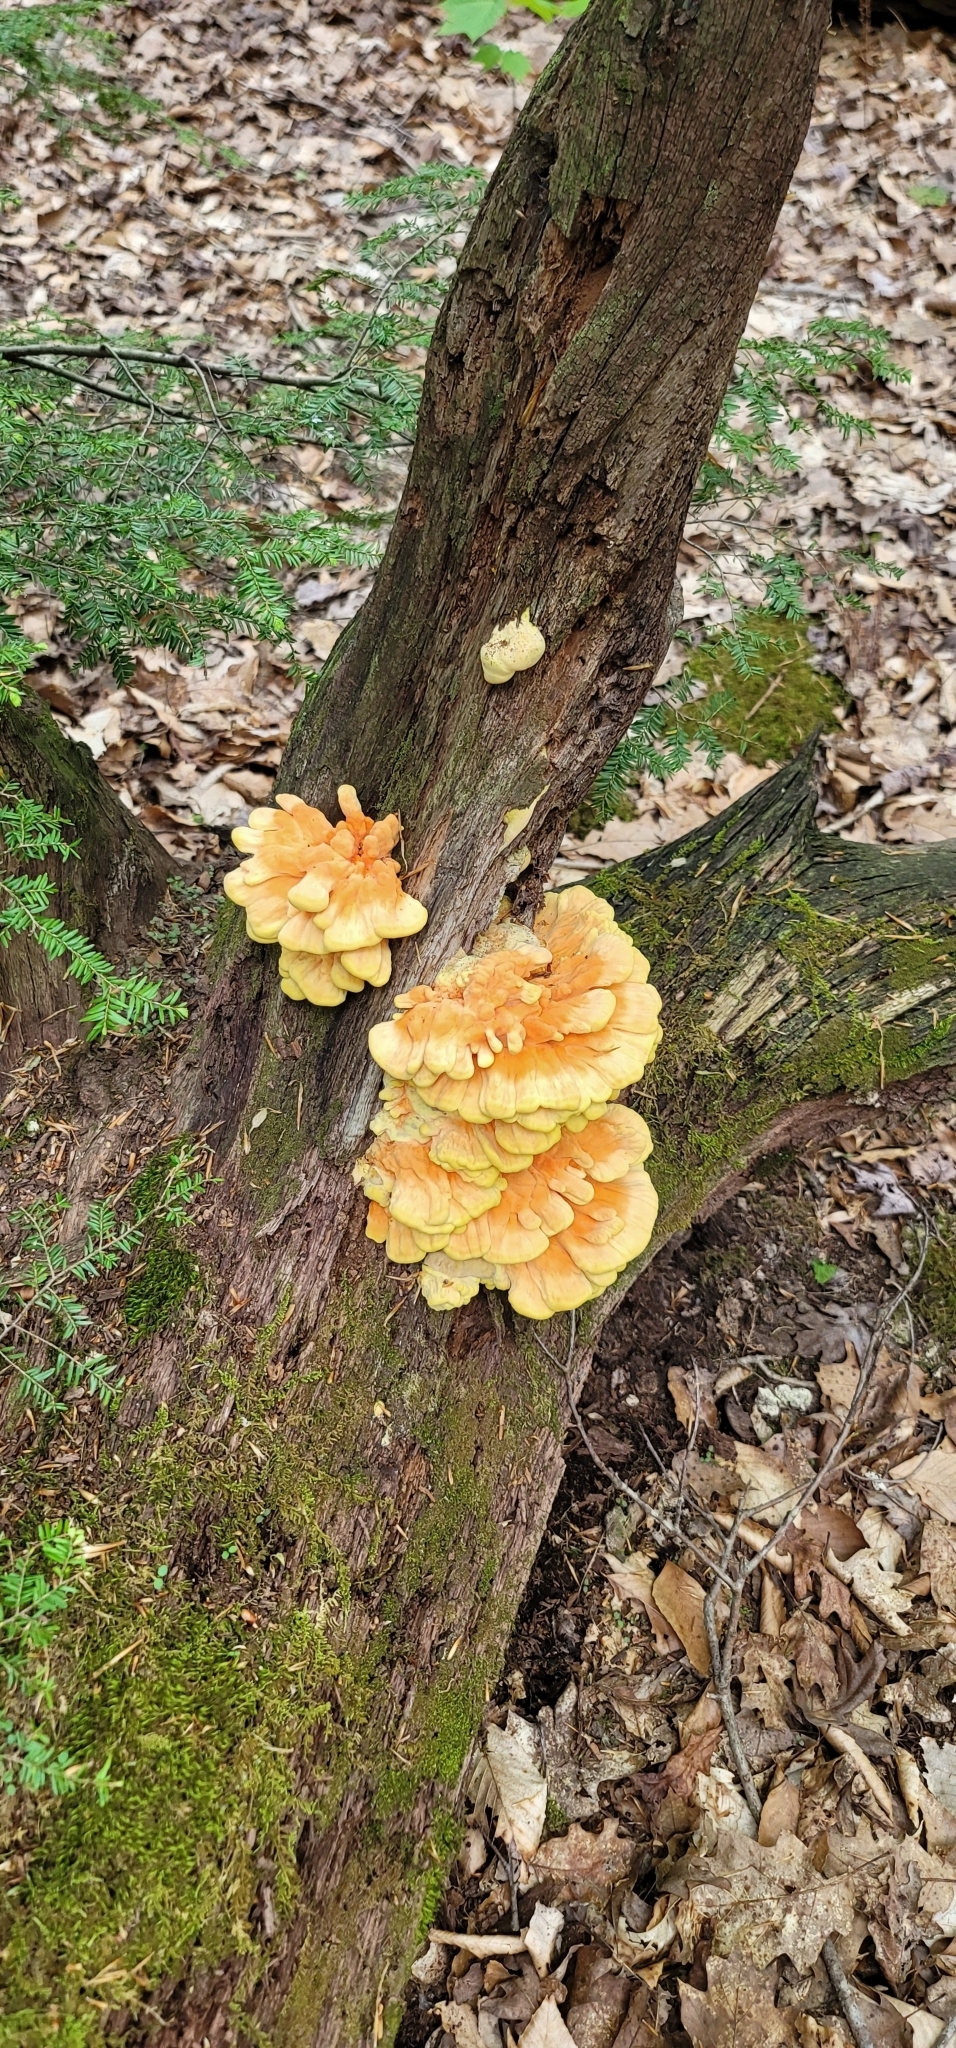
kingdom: Fungi
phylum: Basidiomycota
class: Agaricomycetes
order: Polyporales
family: Laetiporaceae
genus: Laetiporus
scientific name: Laetiporus sulphureus
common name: Chicken of the woods
